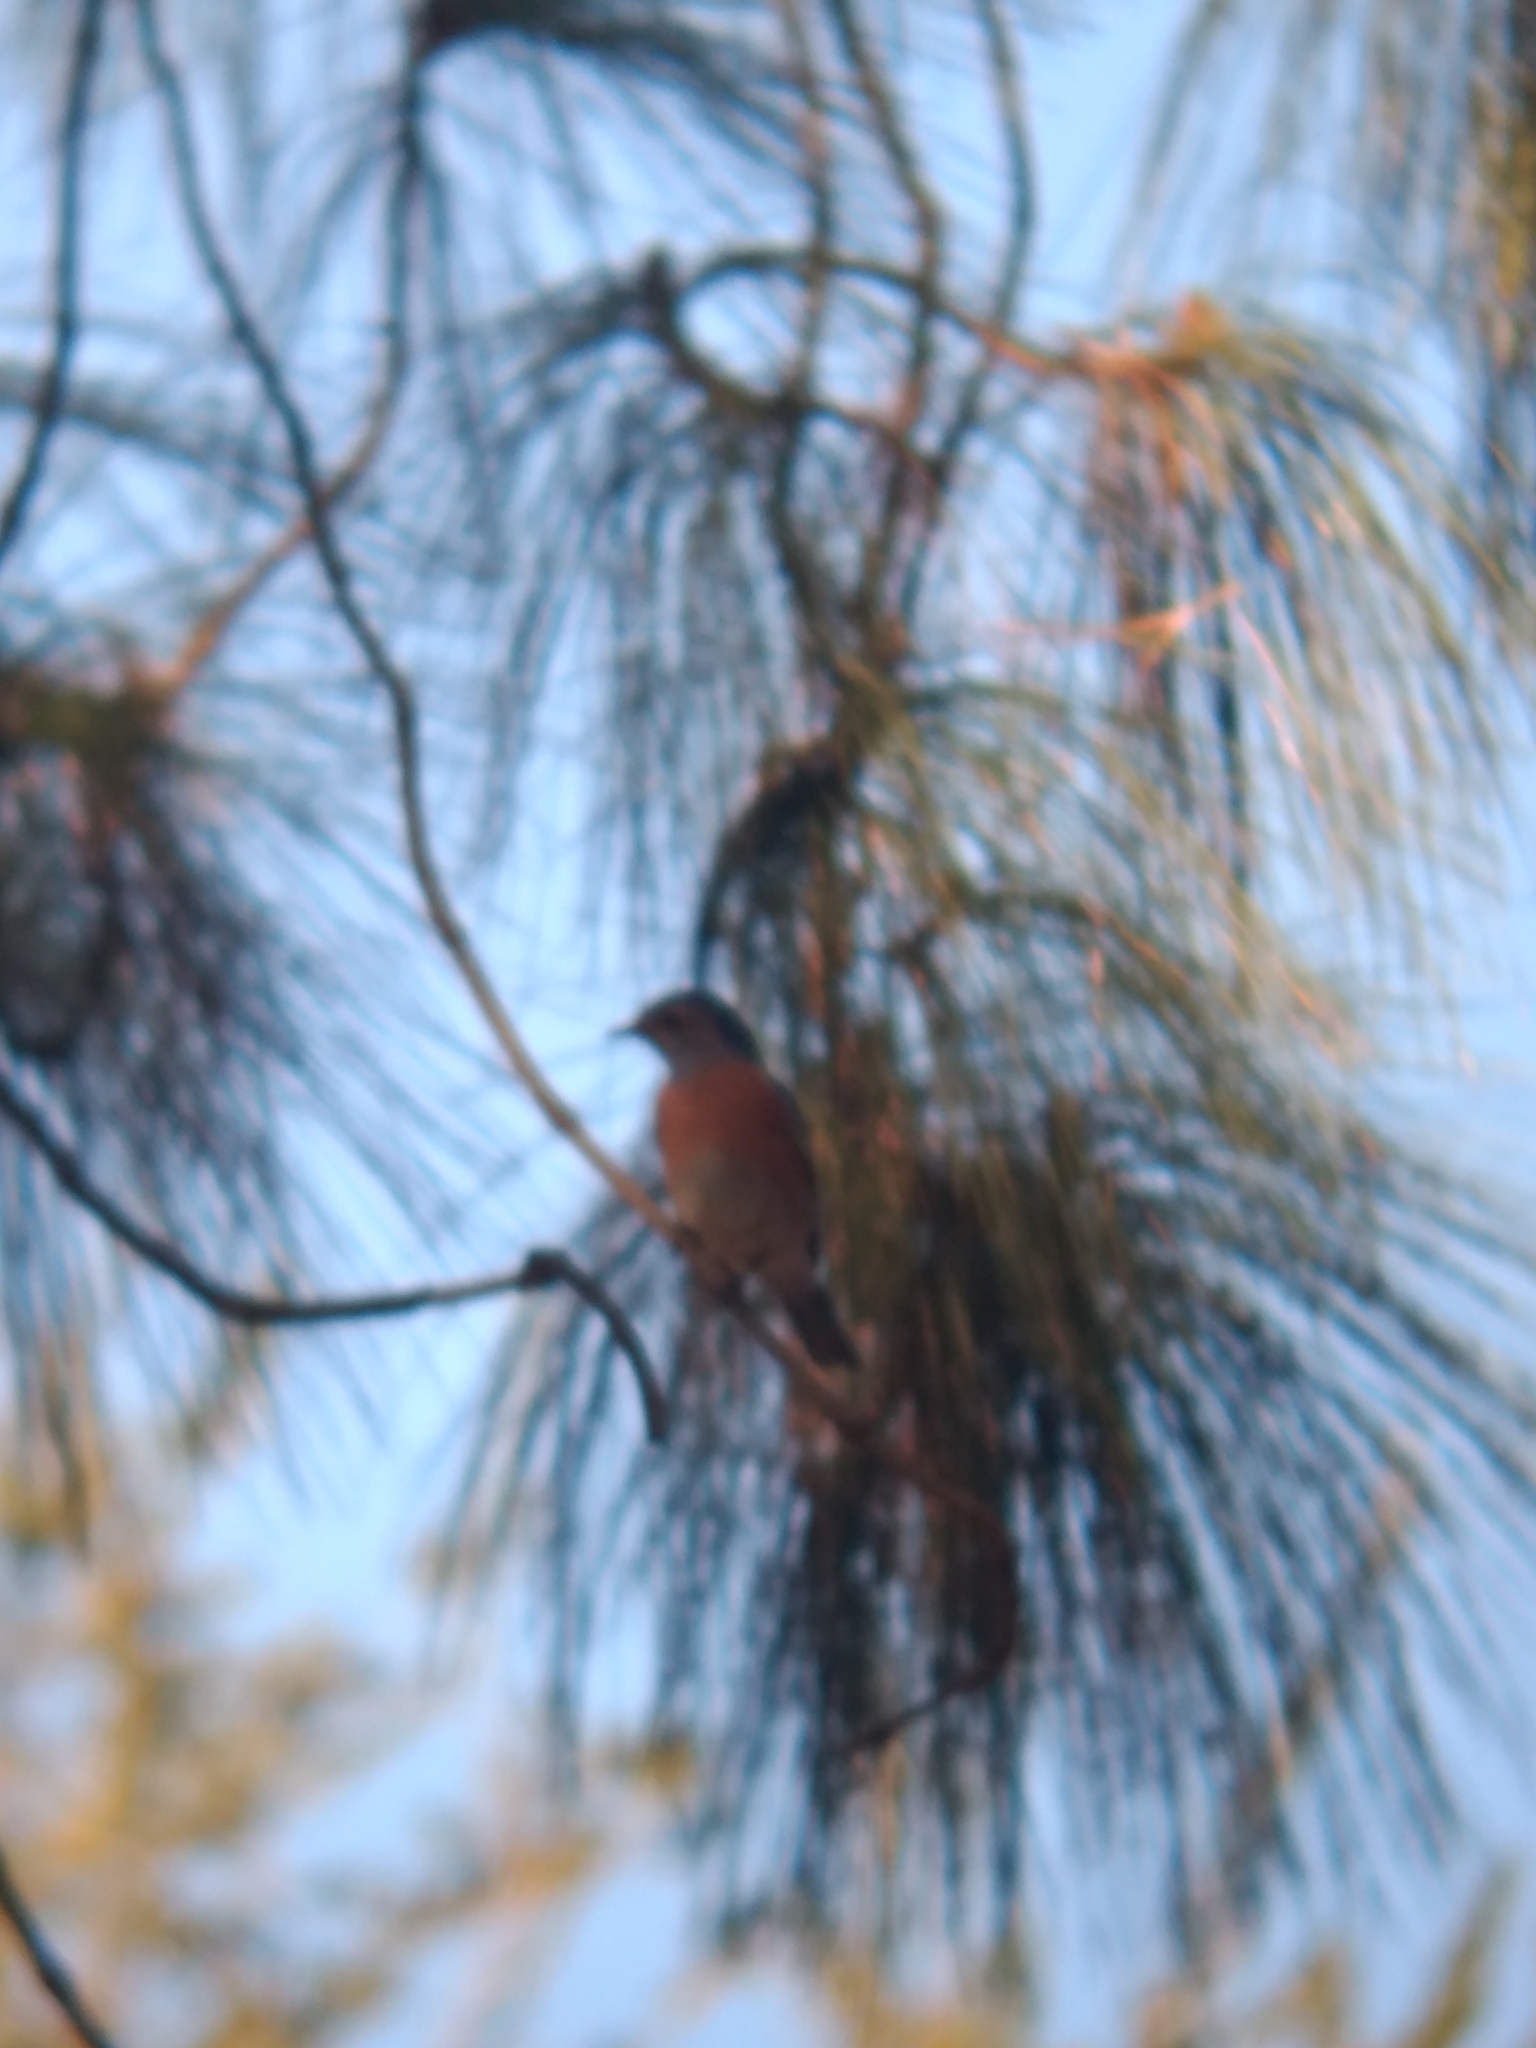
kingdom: Animalia
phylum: Chordata
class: Aves
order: Passeriformes
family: Turdidae
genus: Sialia
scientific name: Sialia mexicana
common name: Western bluebird
